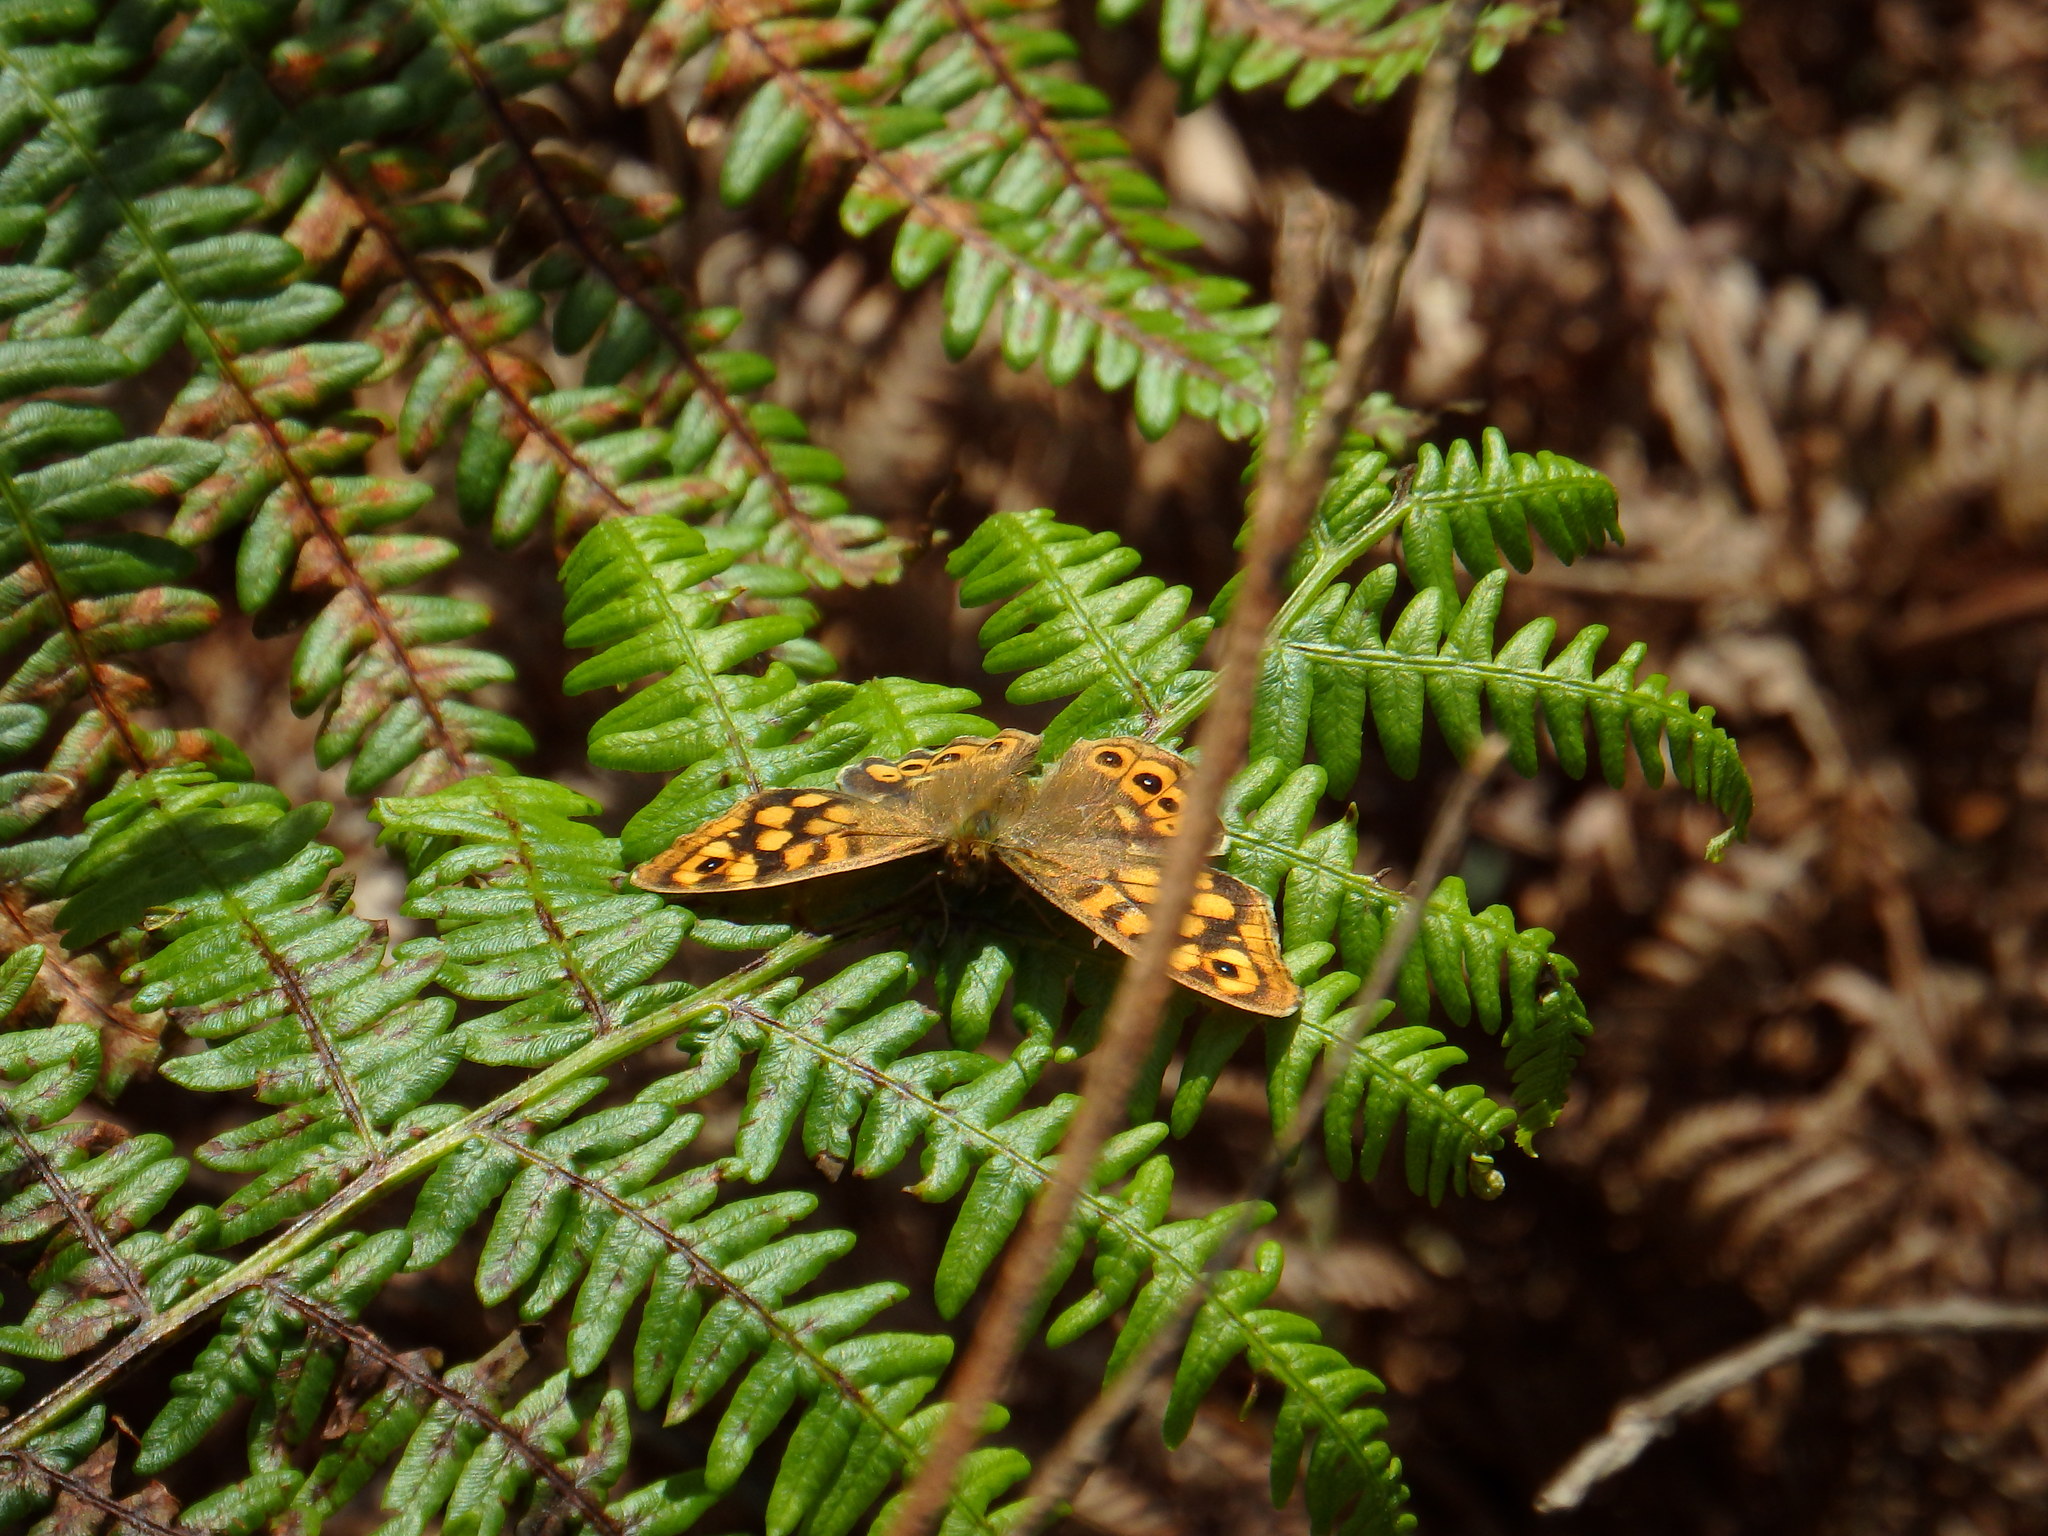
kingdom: Animalia
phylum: Arthropoda
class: Insecta
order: Lepidoptera
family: Nymphalidae
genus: Pararge
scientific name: Pararge aegeria
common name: Speckled wood
